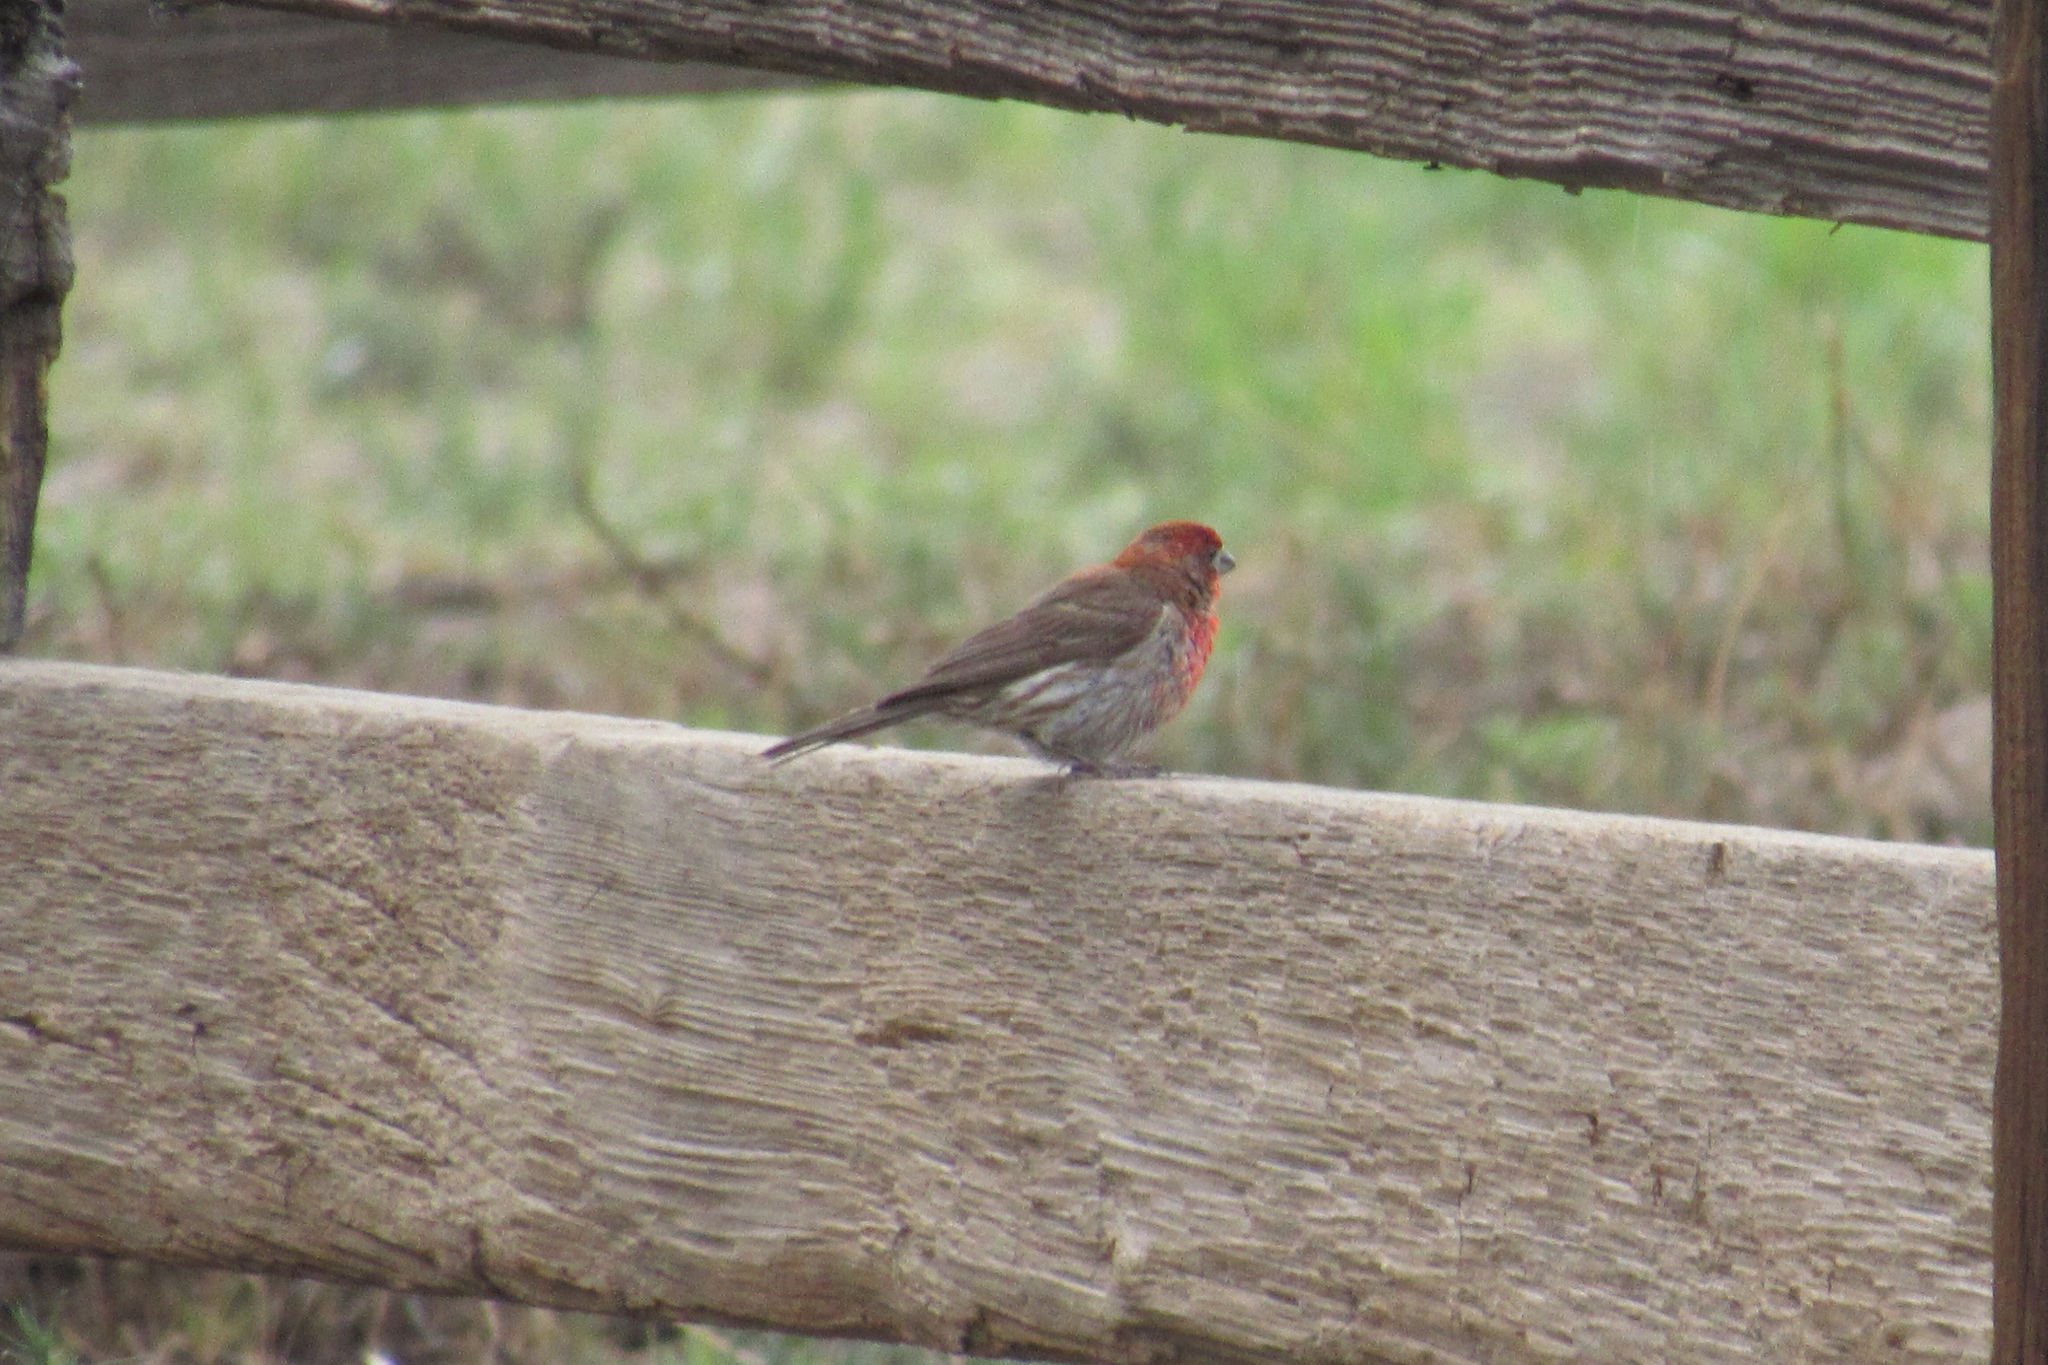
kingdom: Animalia
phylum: Chordata
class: Aves
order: Passeriformes
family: Fringillidae
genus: Haemorhous
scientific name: Haemorhous mexicanus
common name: House finch
